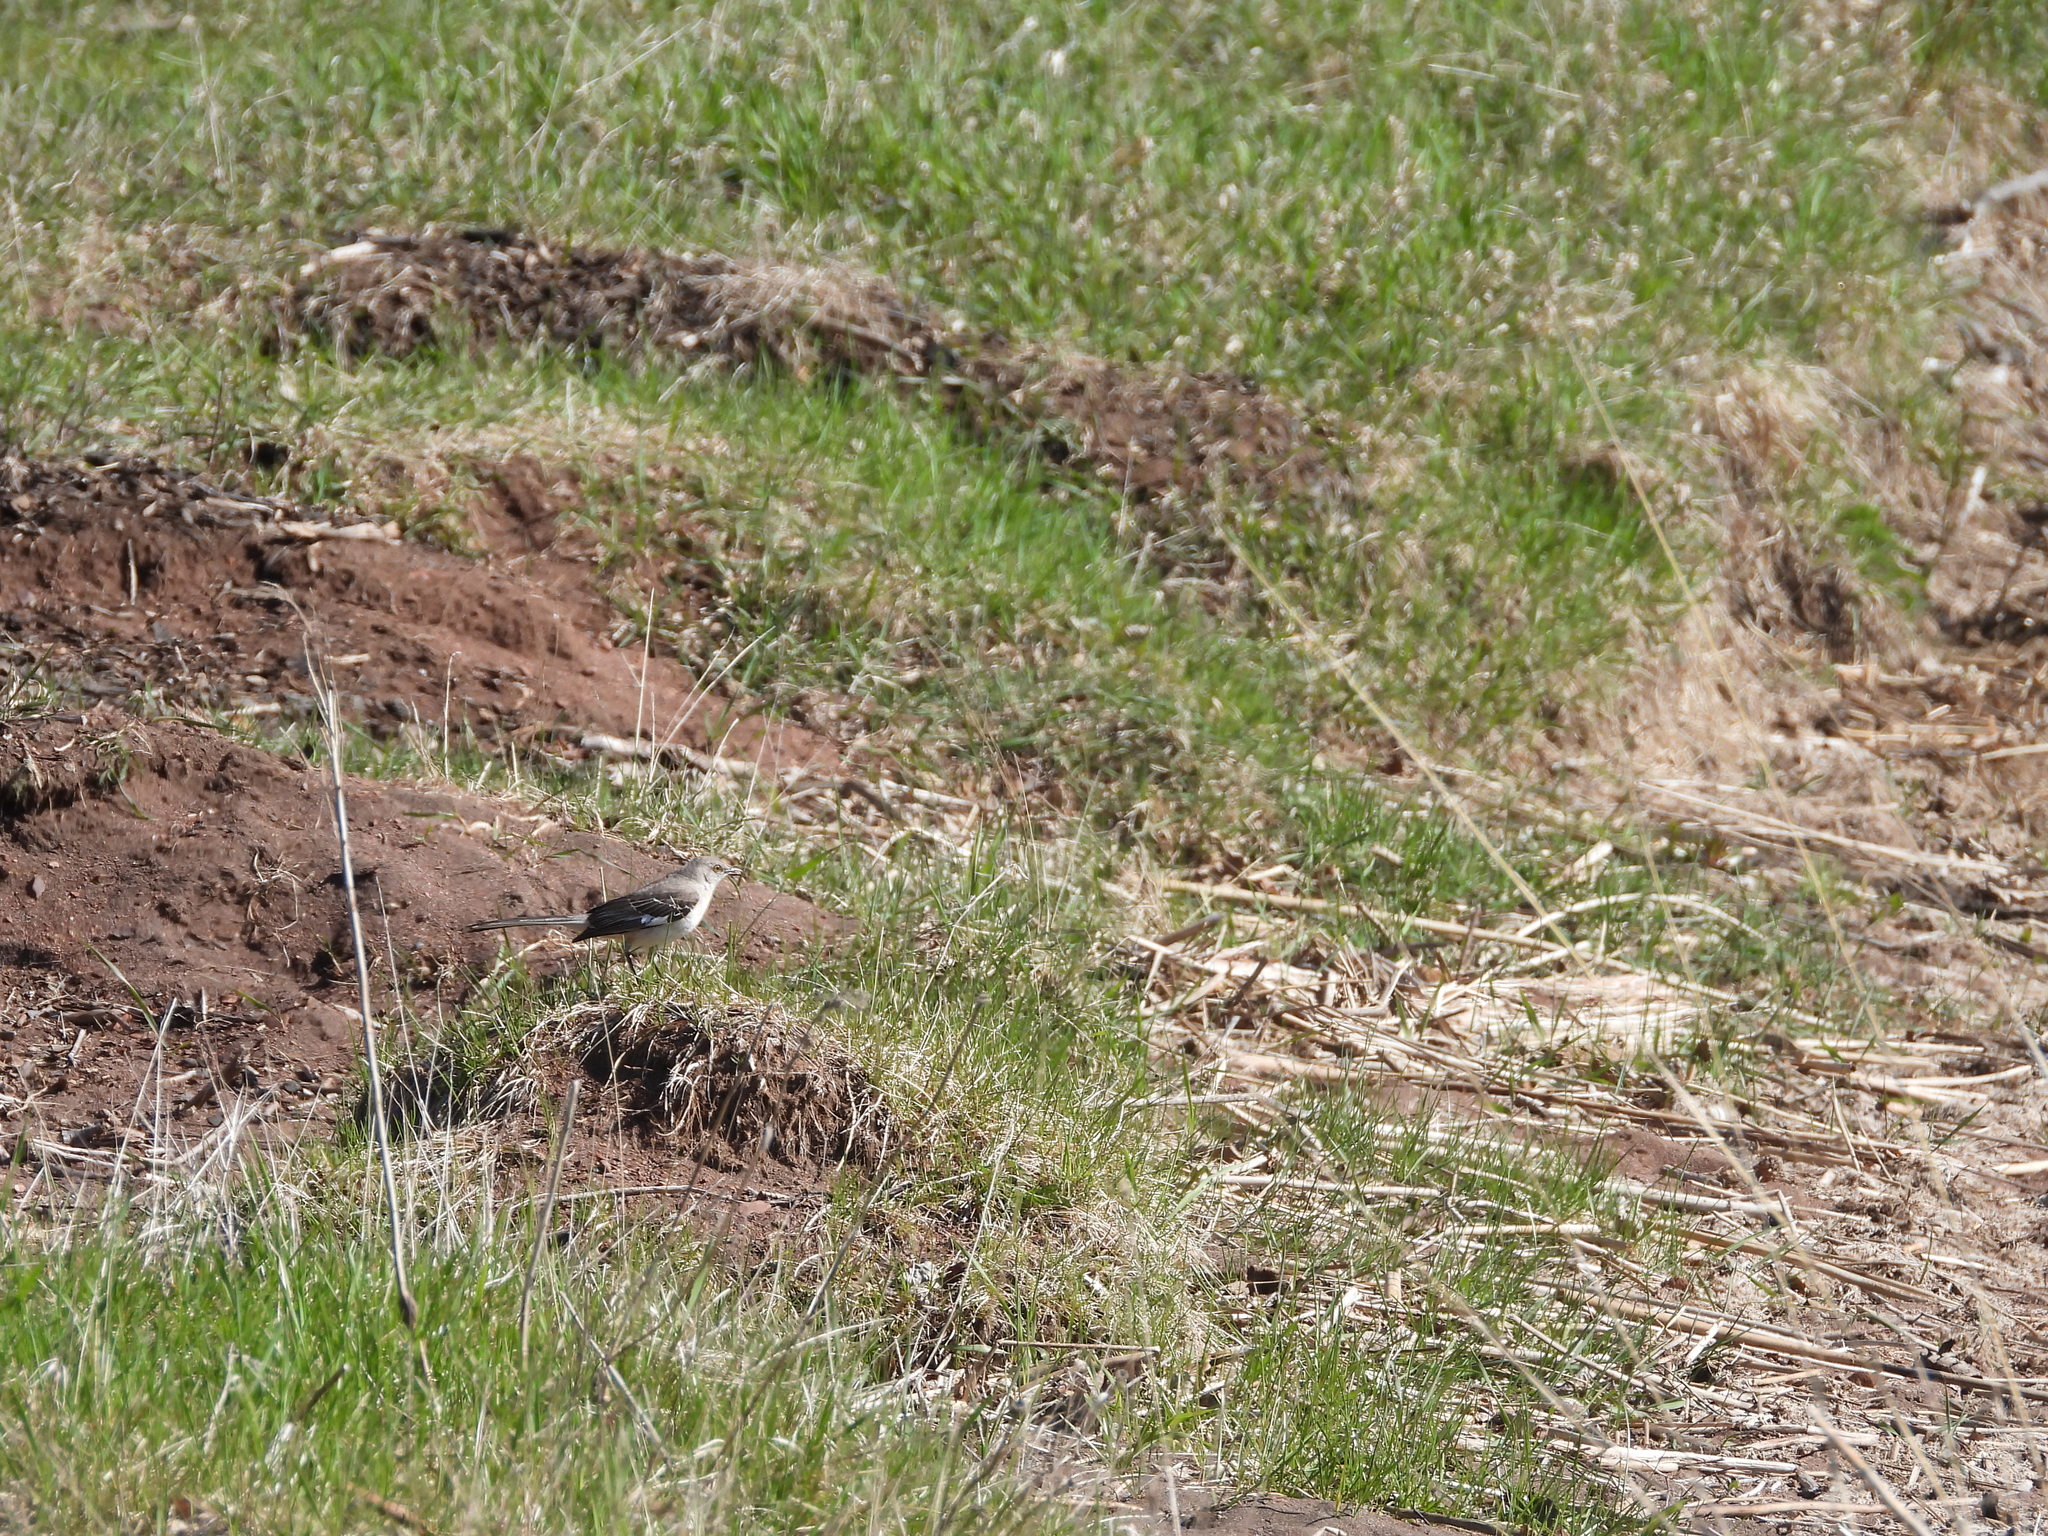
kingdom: Animalia
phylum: Chordata
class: Aves
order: Passeriformes
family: Mimidae
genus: Mimus
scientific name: Mimus polyglottos
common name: Northern mockingbird
